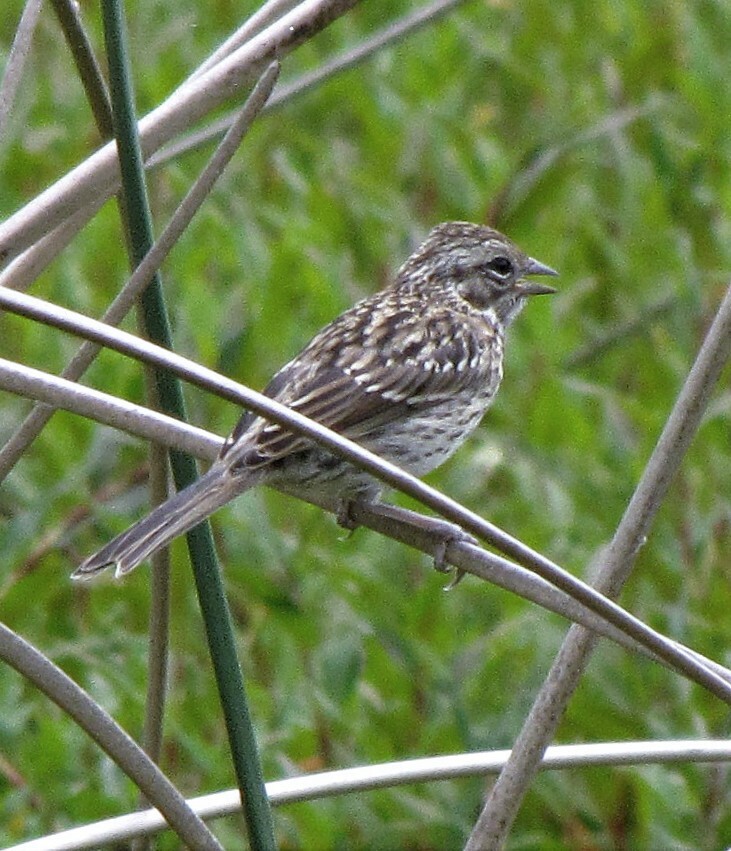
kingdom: Animalia
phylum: Chordata
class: Aves
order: Passeriformes
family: Passerellidae
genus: Zonotrichia
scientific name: Zonotrichia capensis
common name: Rufous-collared sparrow
